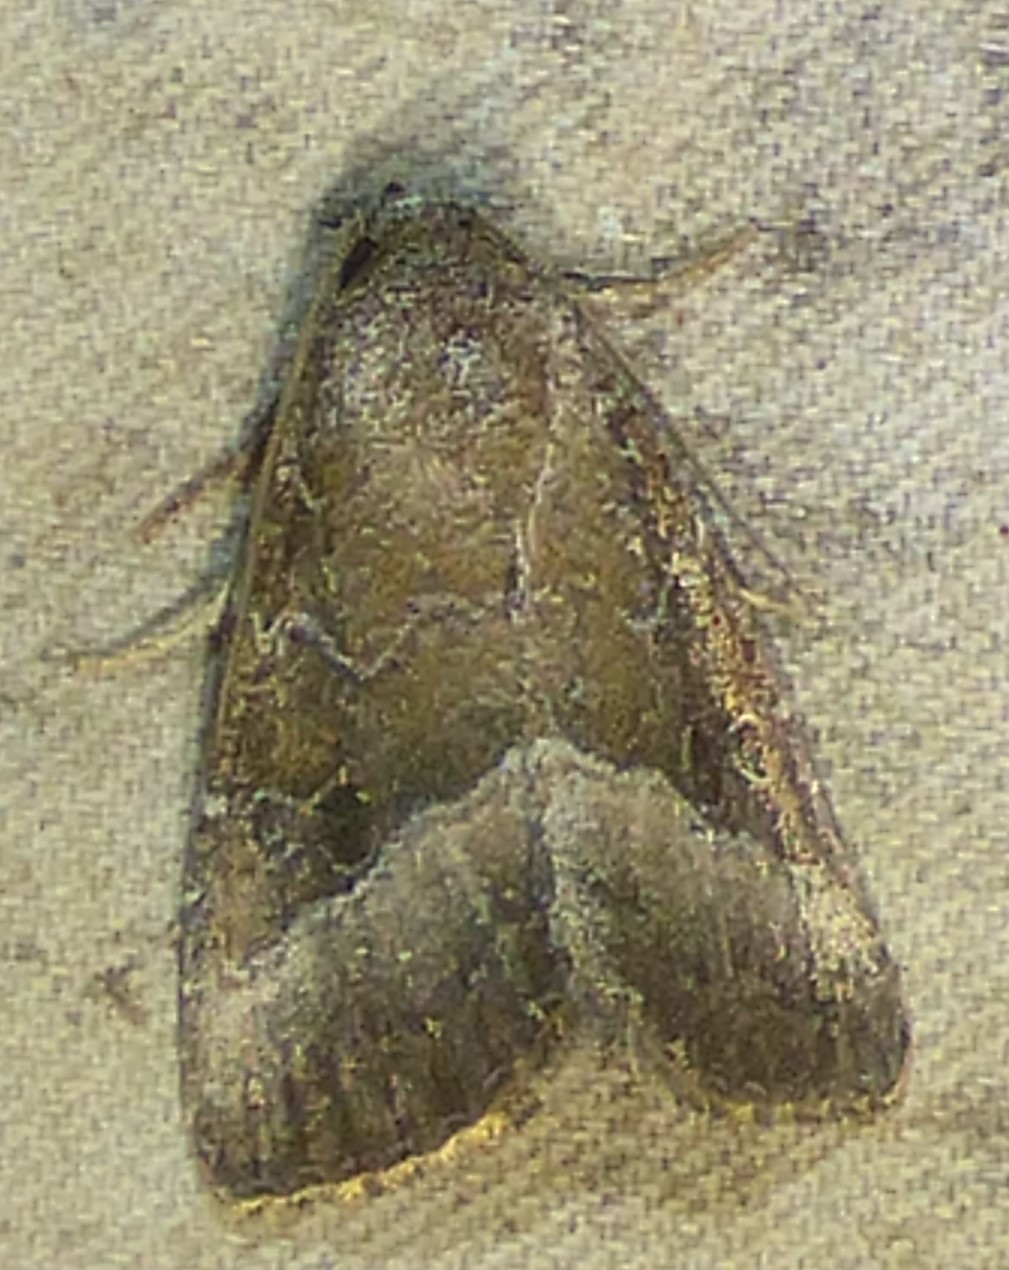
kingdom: Animalia
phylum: Arthropoda
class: Insecta
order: Lepidoptera
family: Noctuidae
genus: Ogdoconta
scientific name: Ogdoconta cinereola
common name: Common pinkband
